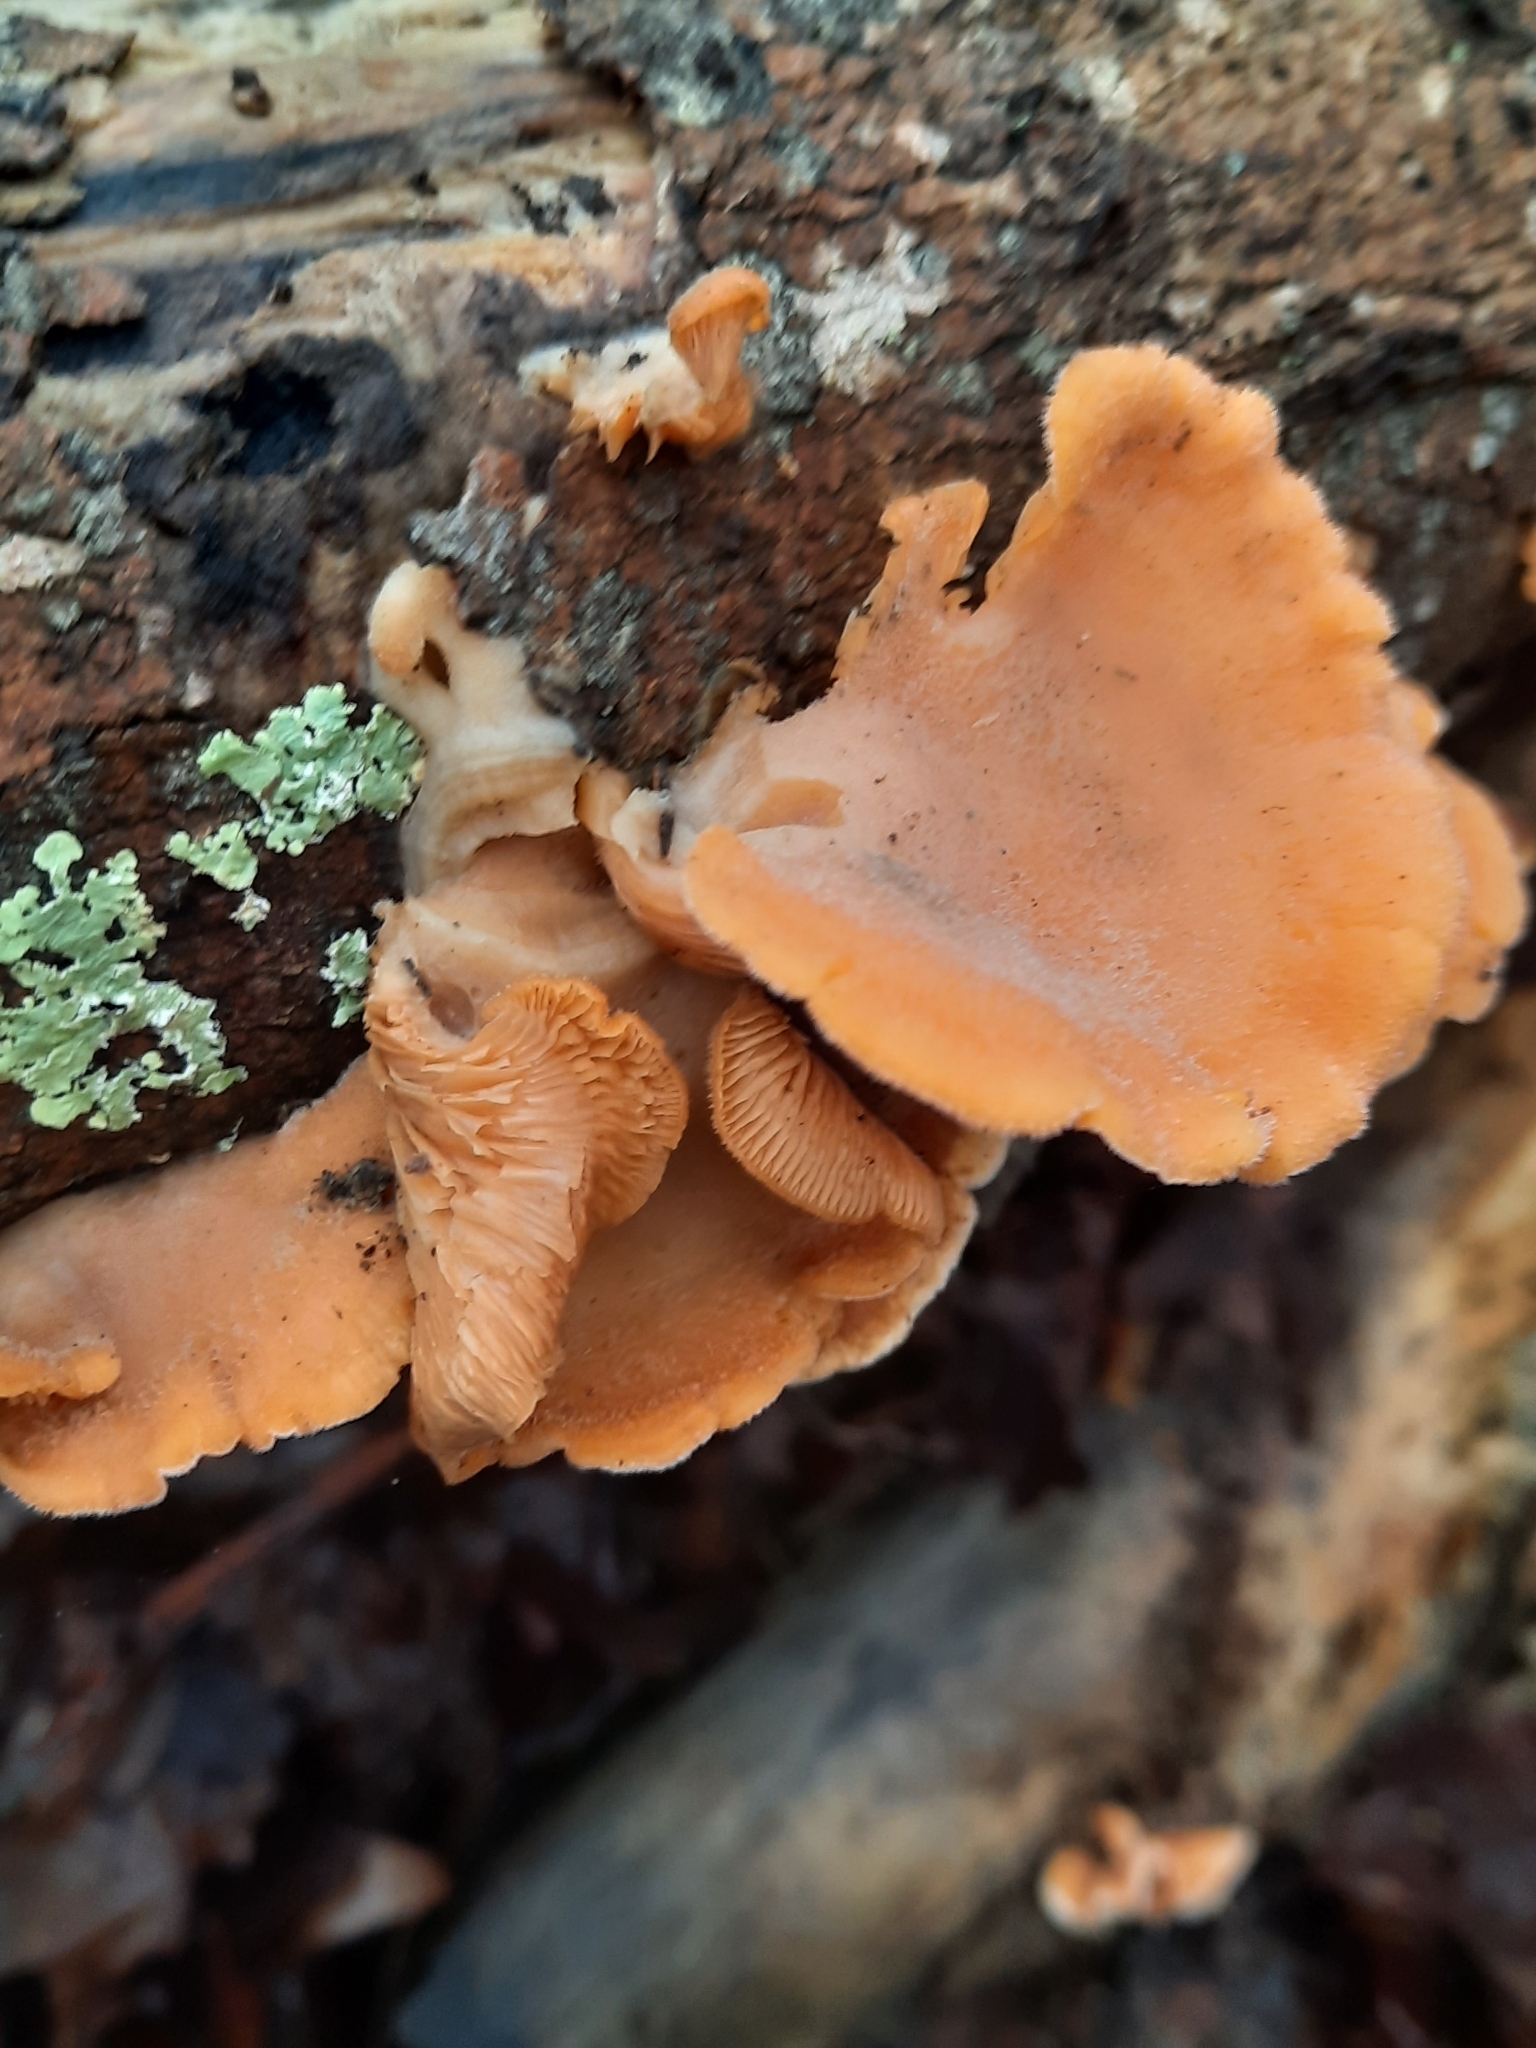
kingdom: Fungi
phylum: Basidiomycota
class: Agaricomycetes
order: Agaricales
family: Phyllotopsidaceae
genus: Phyllotopsis
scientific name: Phyllotopsis nidulans
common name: Orange mock oyster
